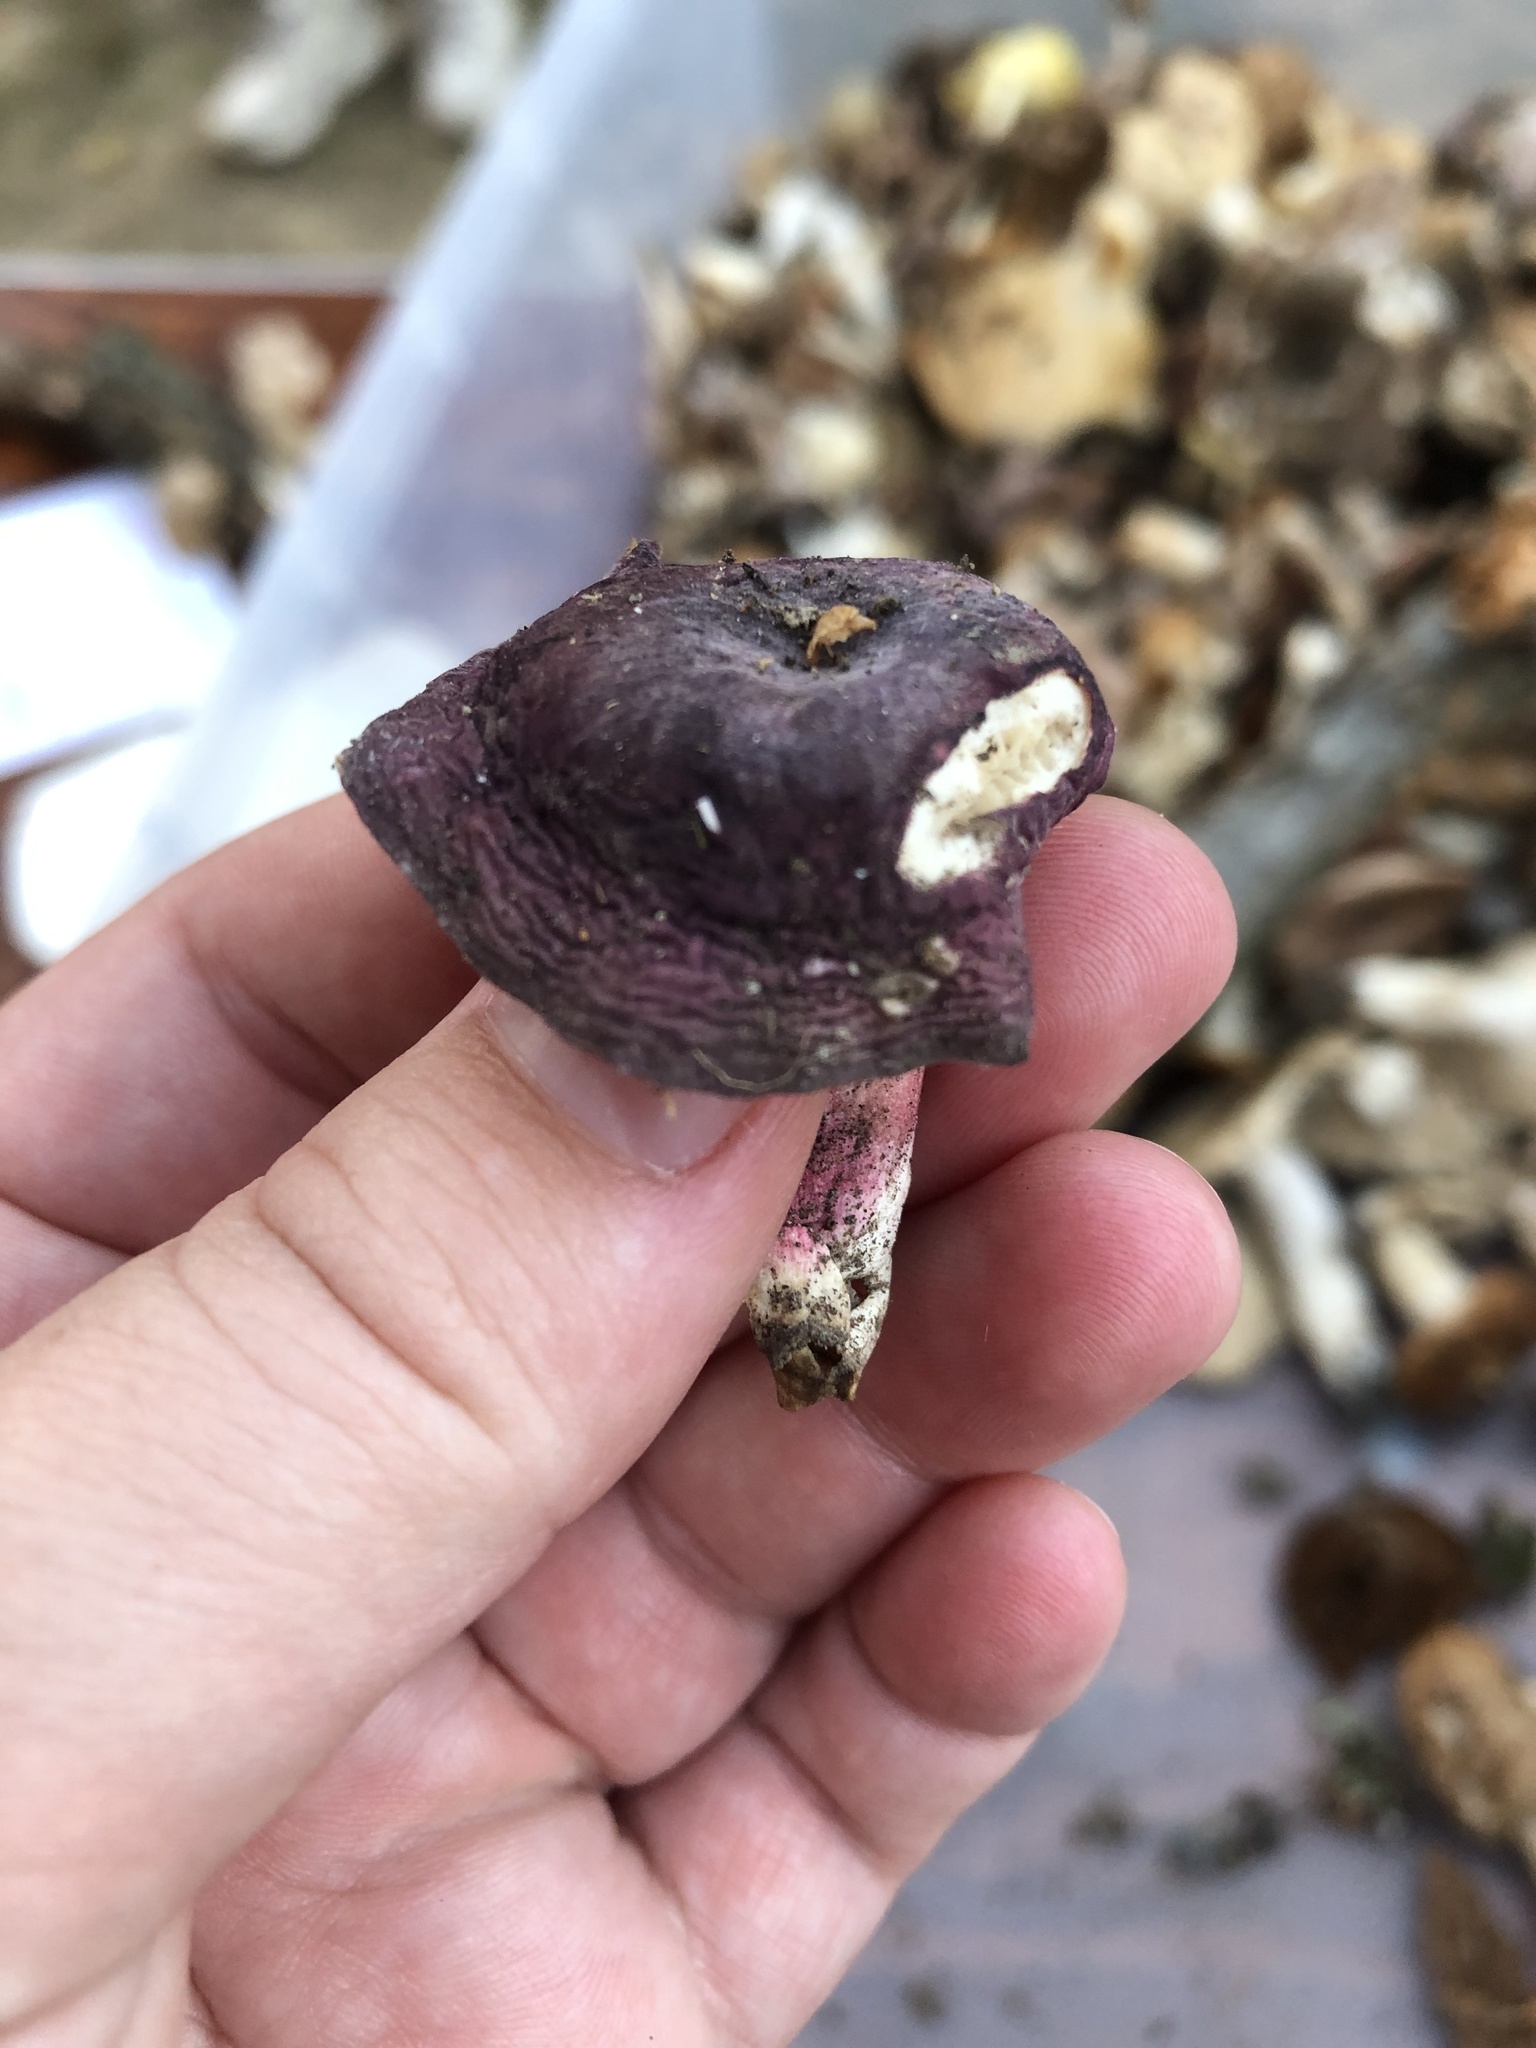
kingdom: Fungi
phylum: Basidiomycota
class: Agaricomycetes
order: Russulales
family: Russulaceae
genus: Russula
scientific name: Russula mariae
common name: Purple-bloom russula
